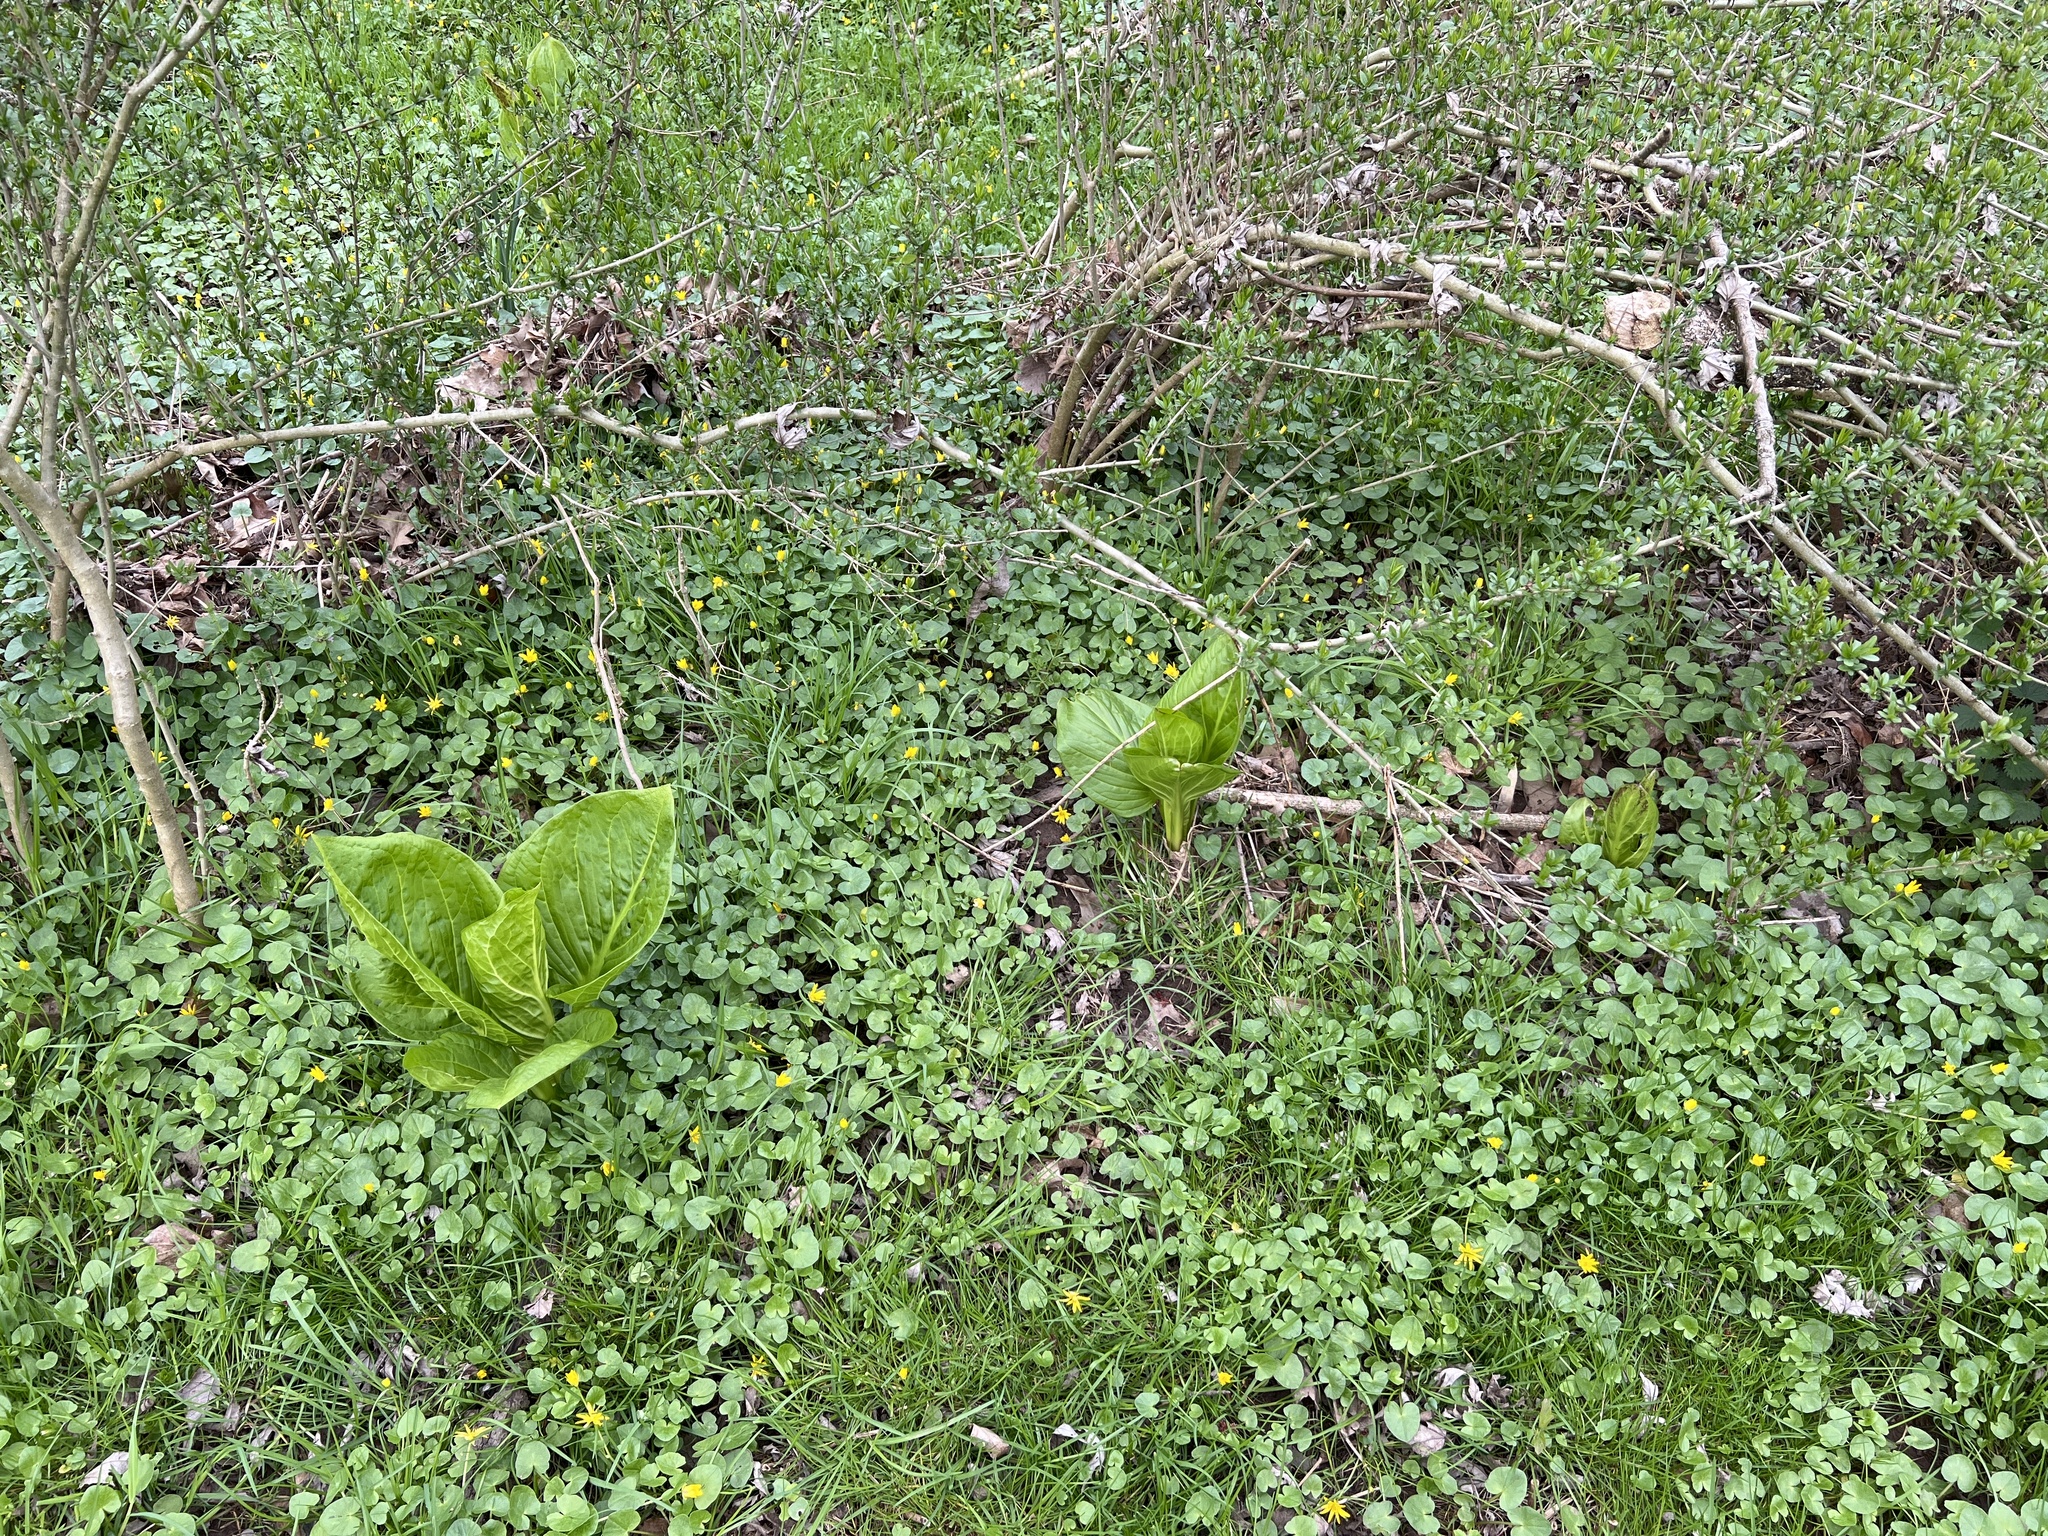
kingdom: Plantae
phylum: Tracheophyta
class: Liliopsida
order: Alismatales
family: Araceae
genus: Symplocarpus
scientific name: Symplocarpus foetidus
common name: Eastern skunk cabbage
